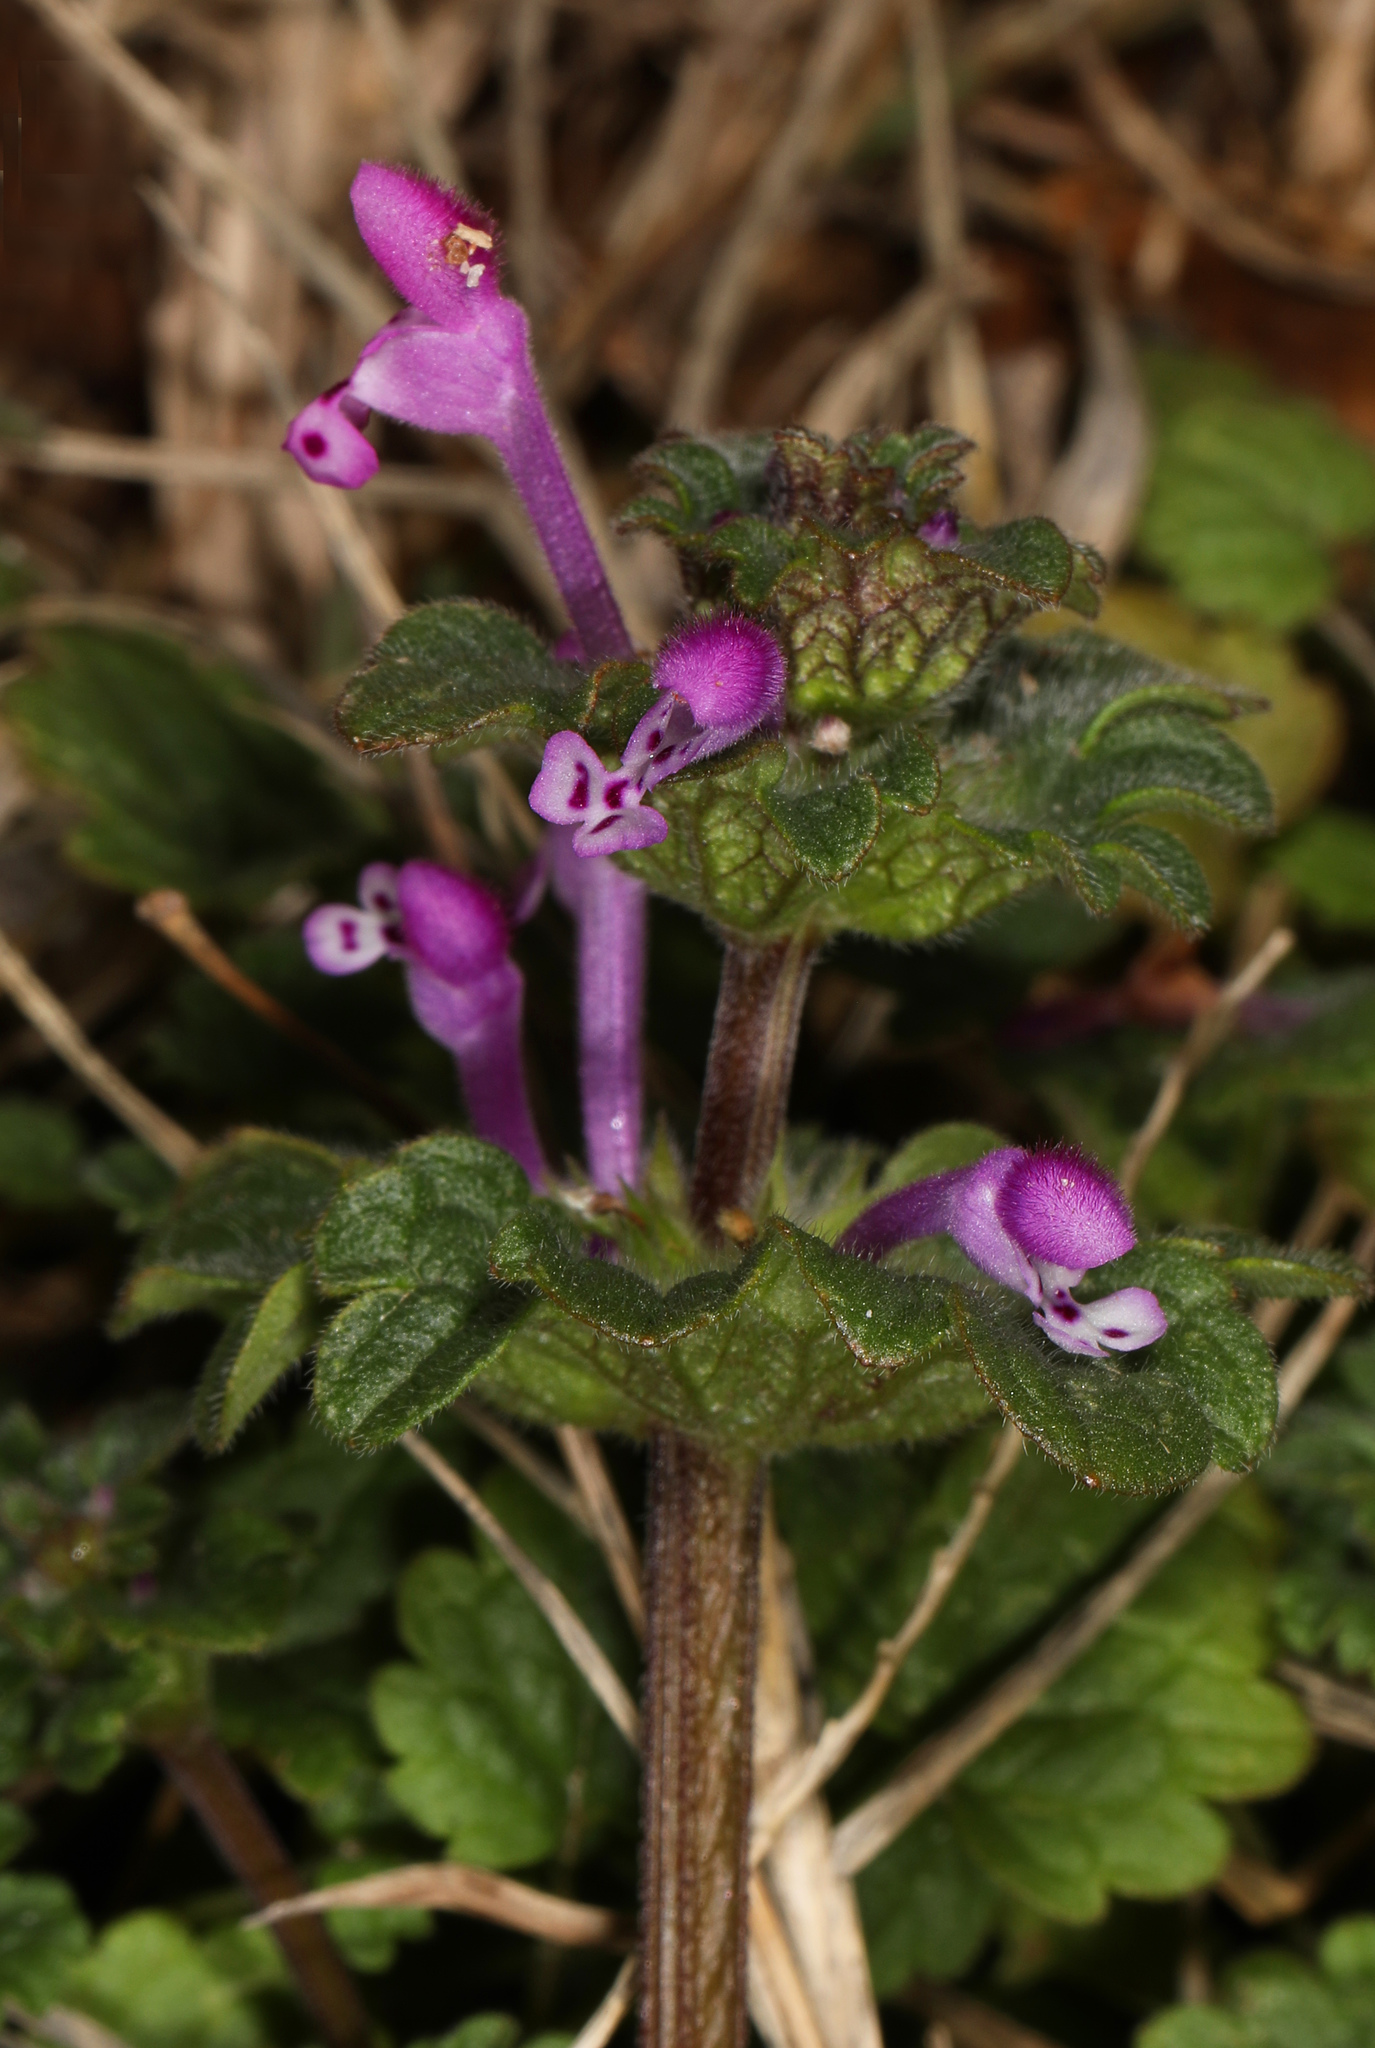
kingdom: Plantae
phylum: Tracheophyta
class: Magnoliopsida
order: Lamiales
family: Lamiaceae
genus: Lamium
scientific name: Lamium amplexicaule
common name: Henbit dead-nettle
